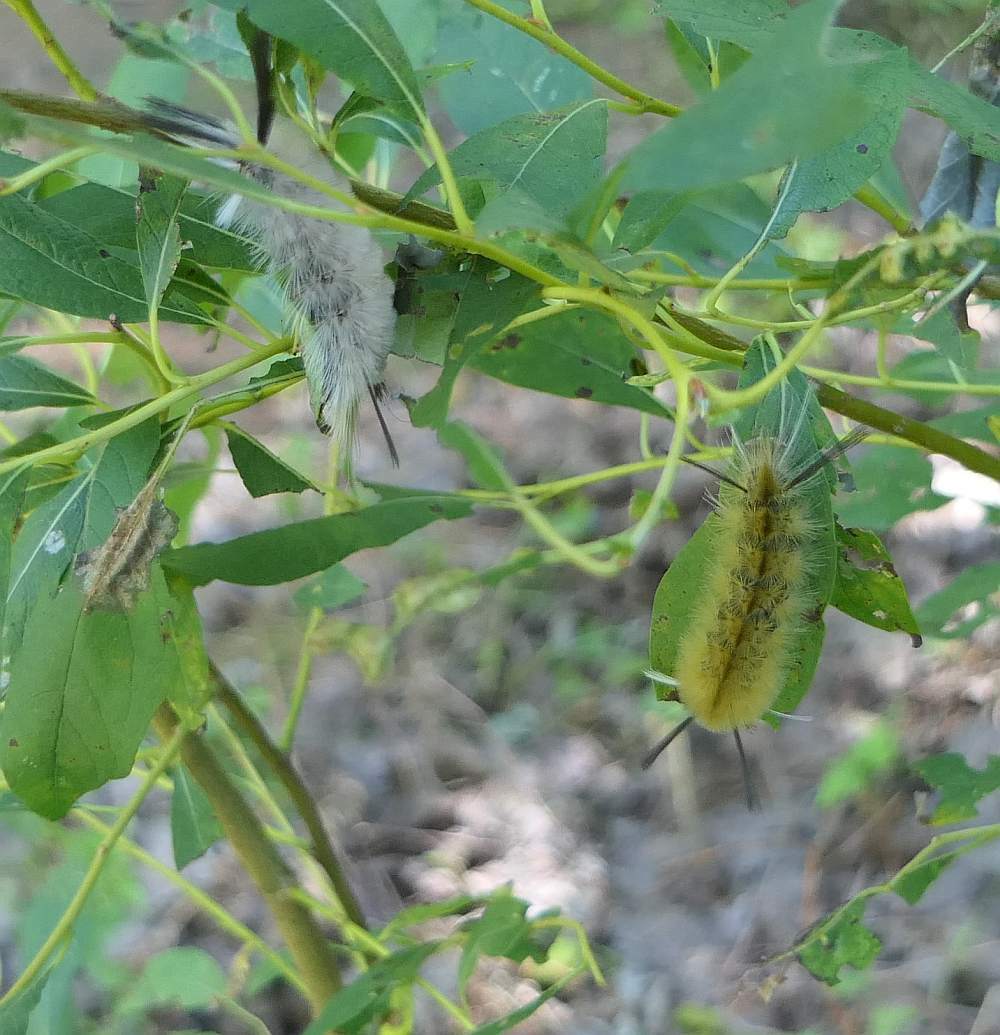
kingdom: Animalia
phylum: Arthropoda
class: Insecta
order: Lepidoptera
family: Erebidae
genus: Halysidota
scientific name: Halysidota tessellaris
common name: Banded tussock moth
